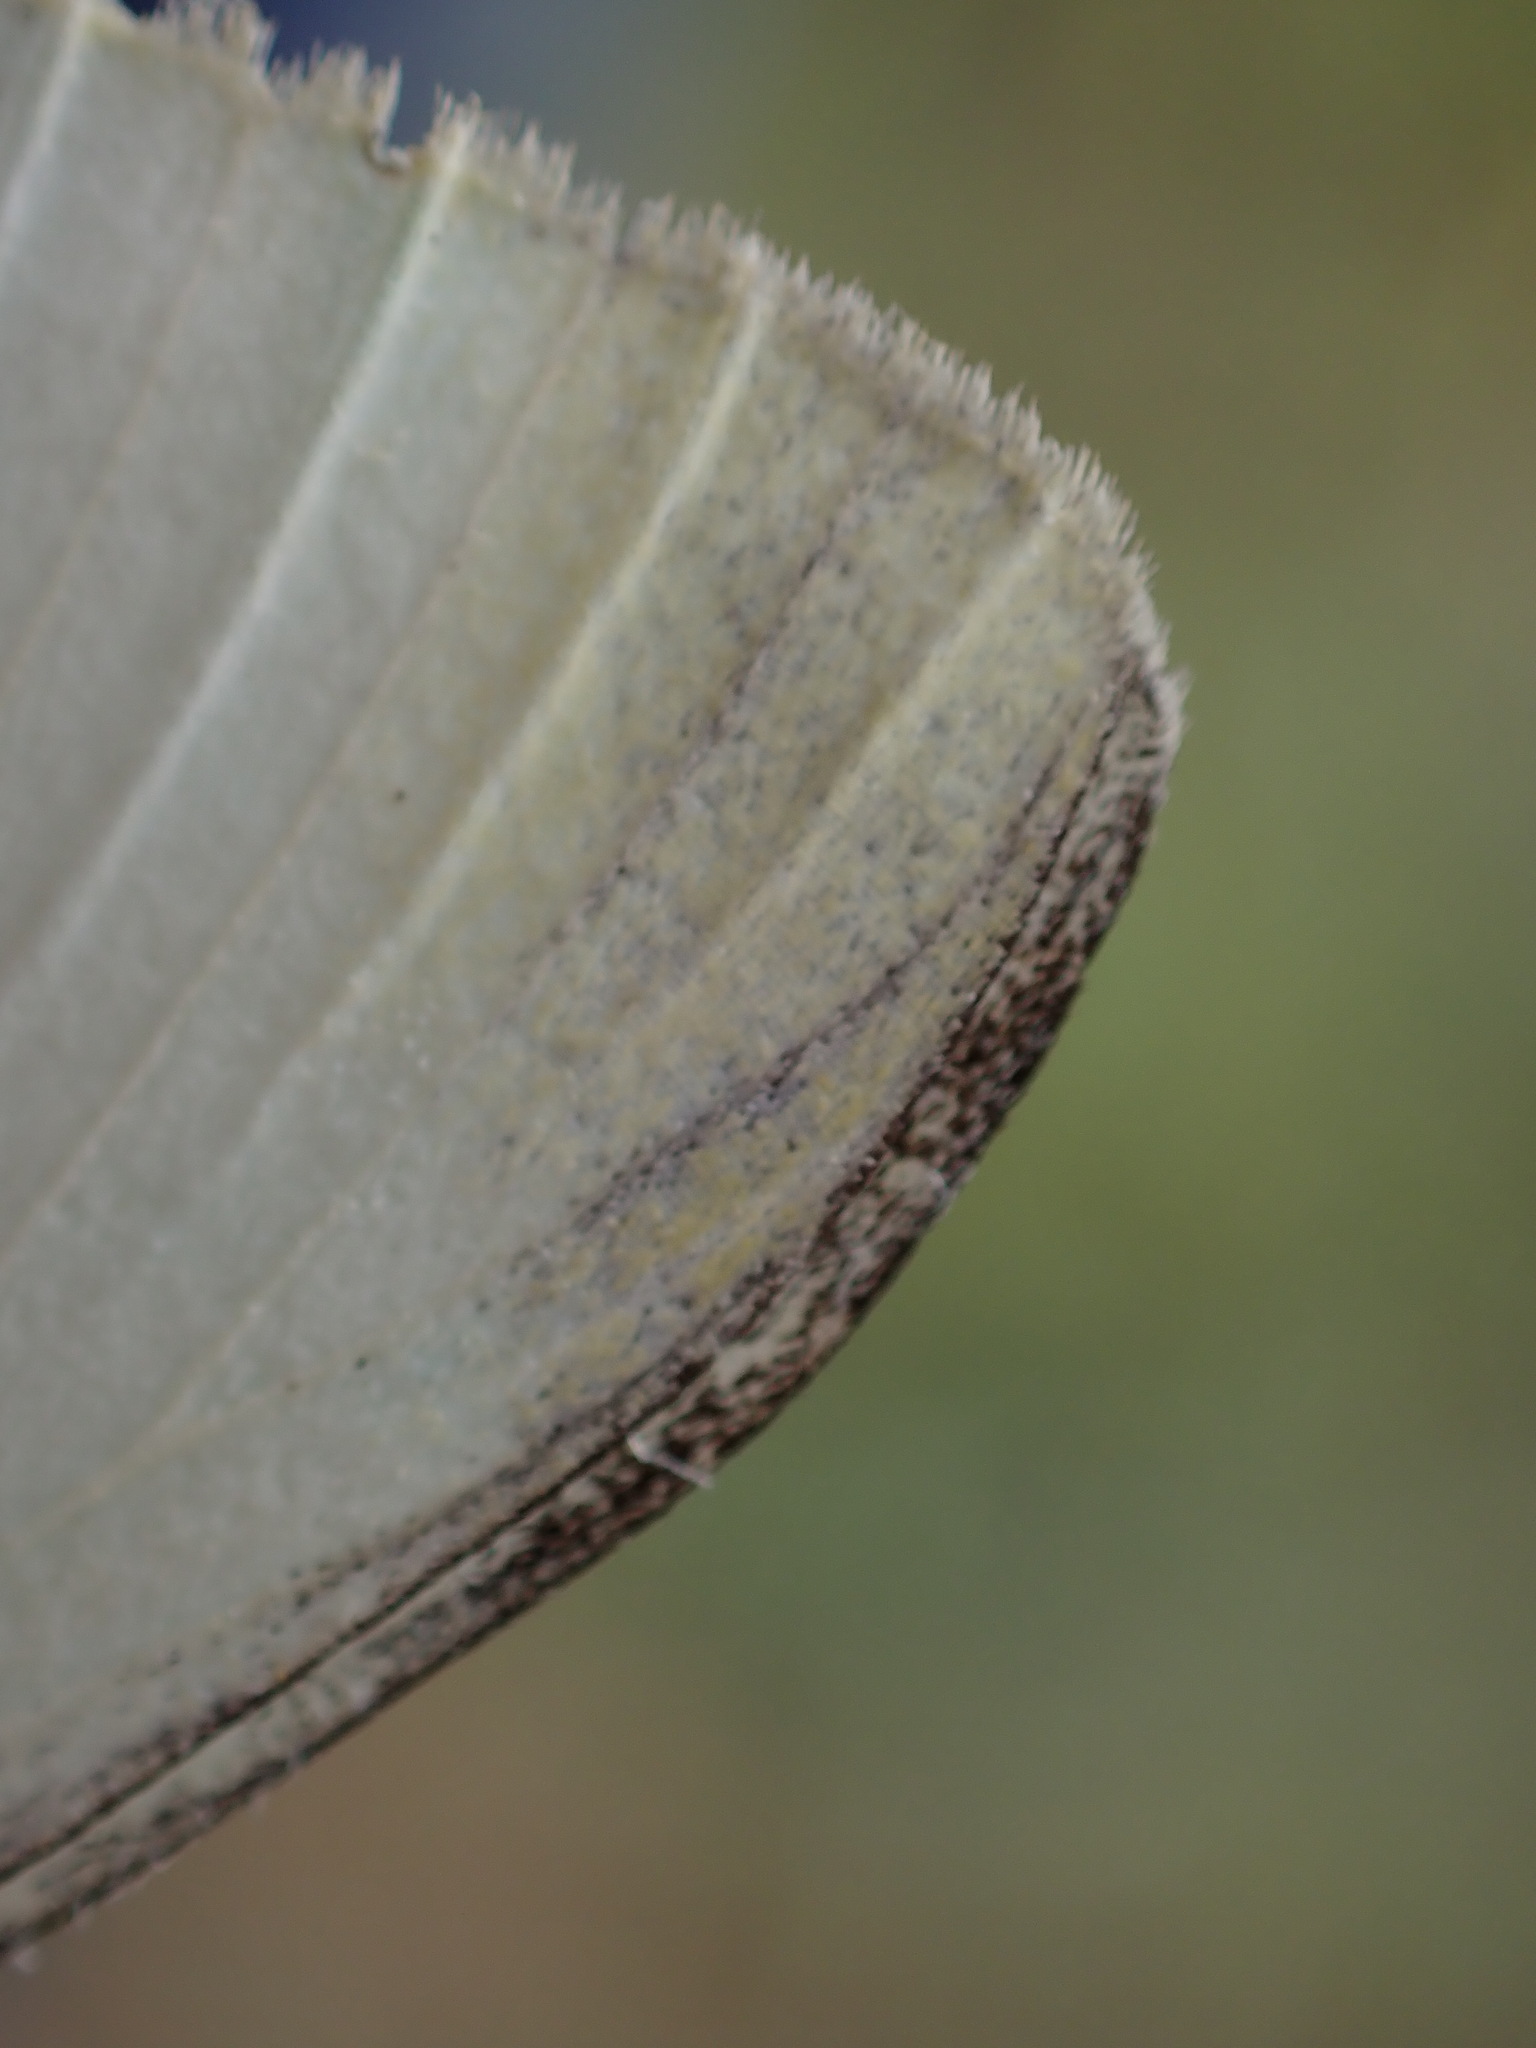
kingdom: Animalia
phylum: Arthropoda
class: Insecta
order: Lepidoptera
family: Pieridae
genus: Pieris
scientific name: Pieris rapae
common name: Small white
